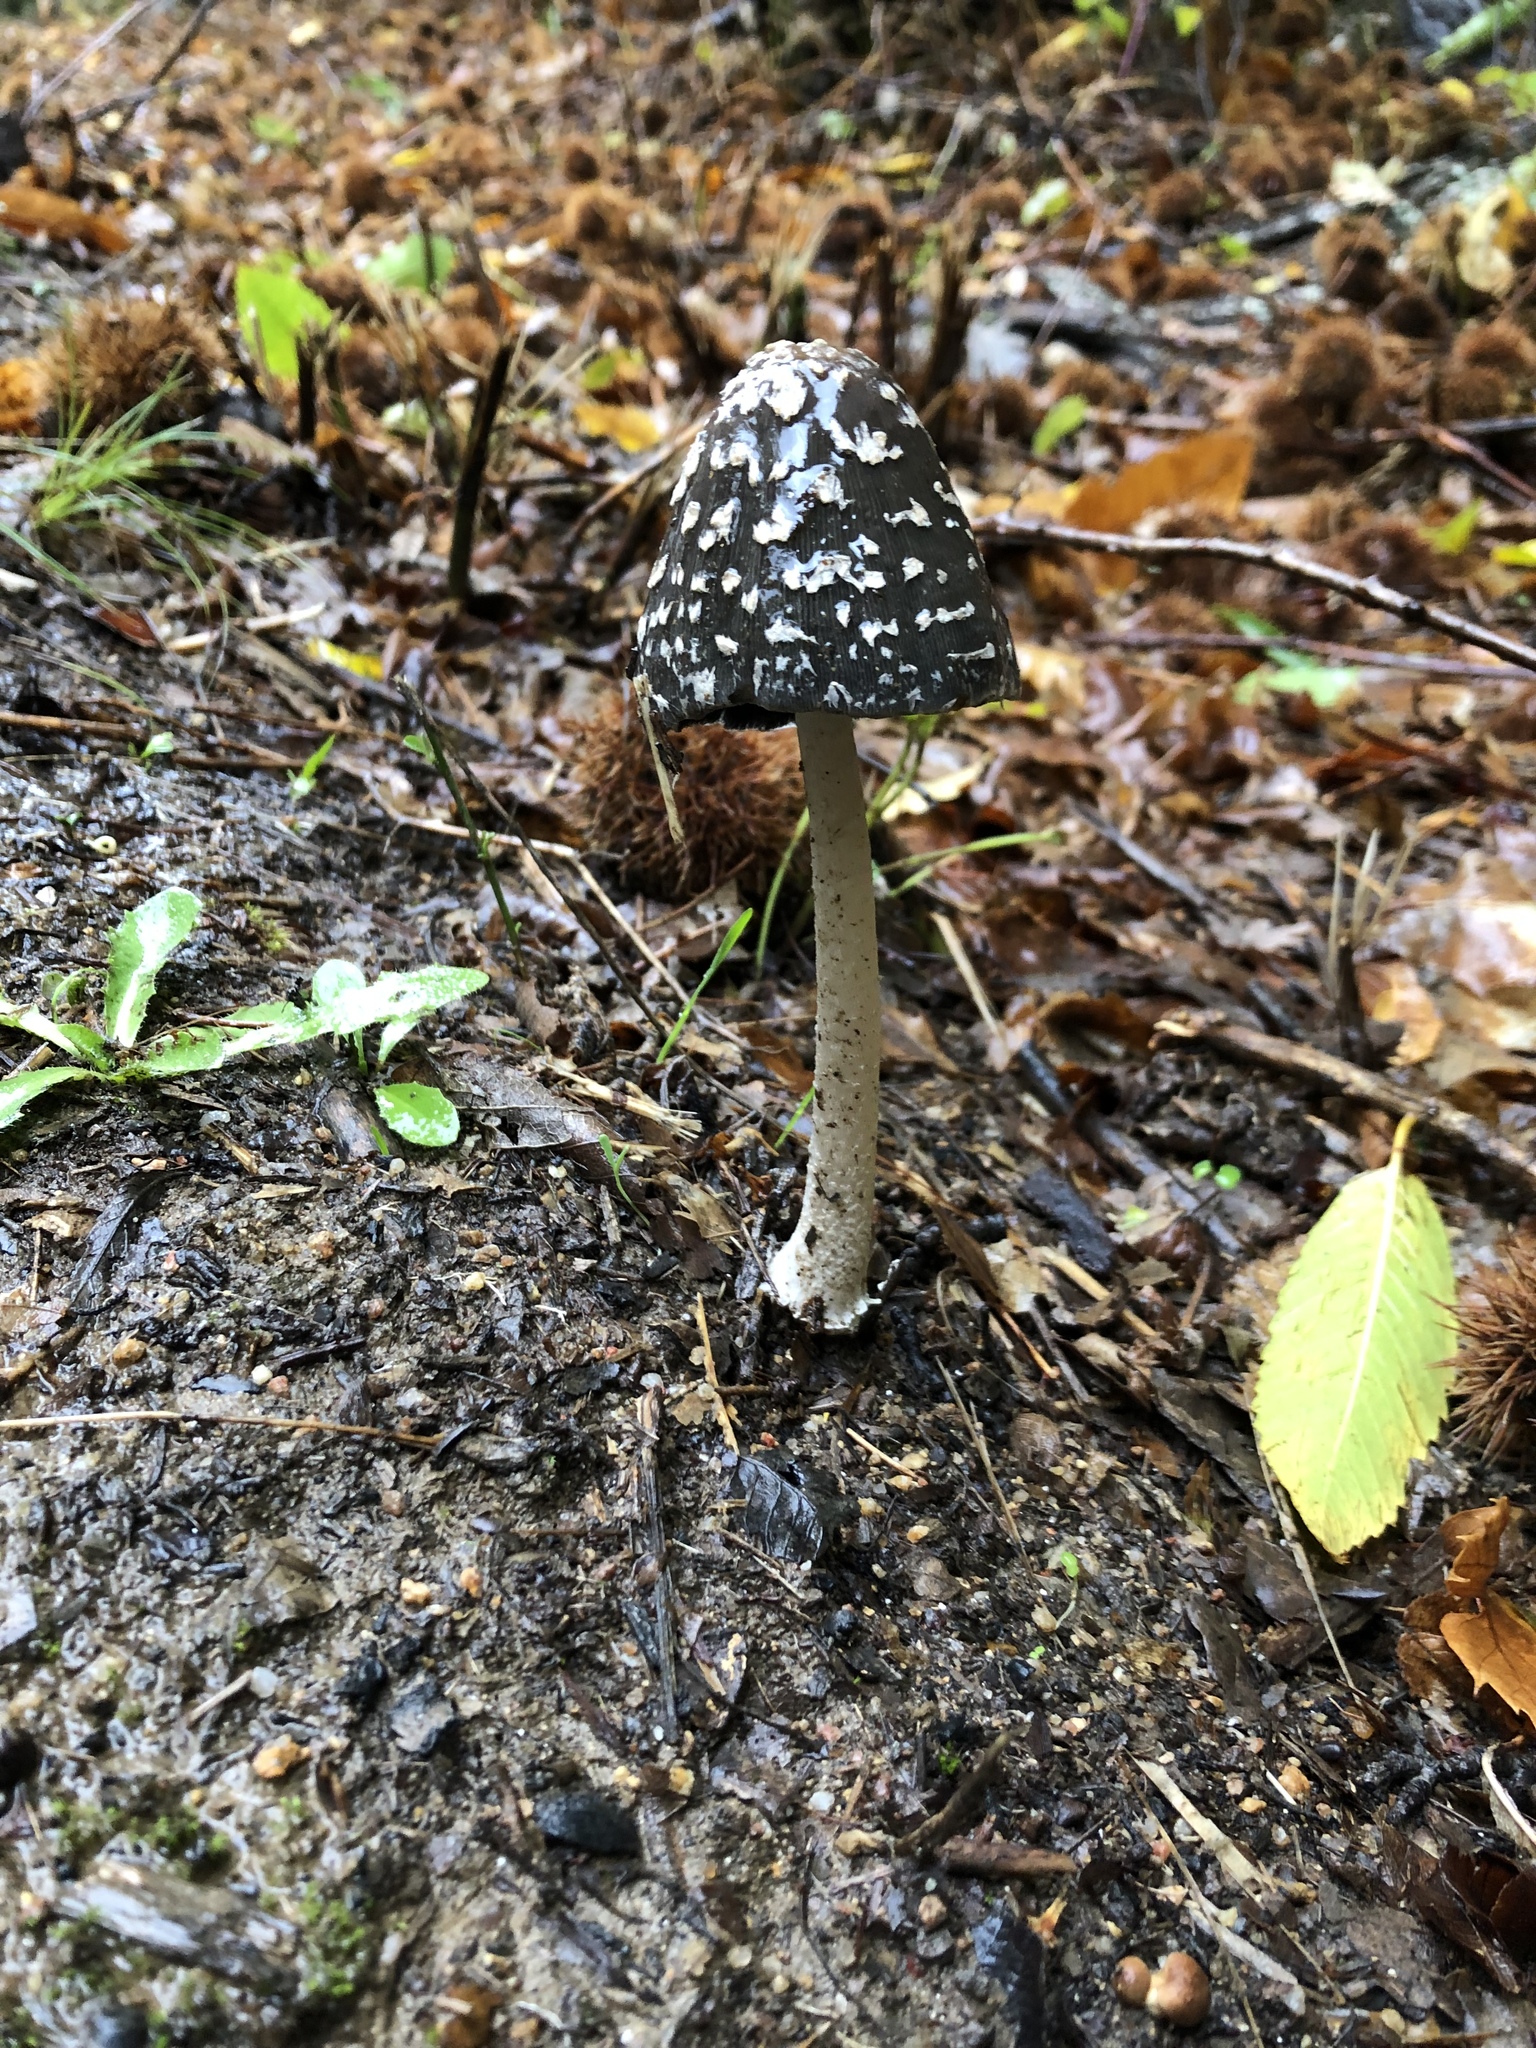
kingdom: Fungi
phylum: Basidiomycota
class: Agaricomycetes
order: Agaricales
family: Psathyrellaceae
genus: Coprinopsis
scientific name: Coprinopsis picacea
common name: Magpie inkcap
